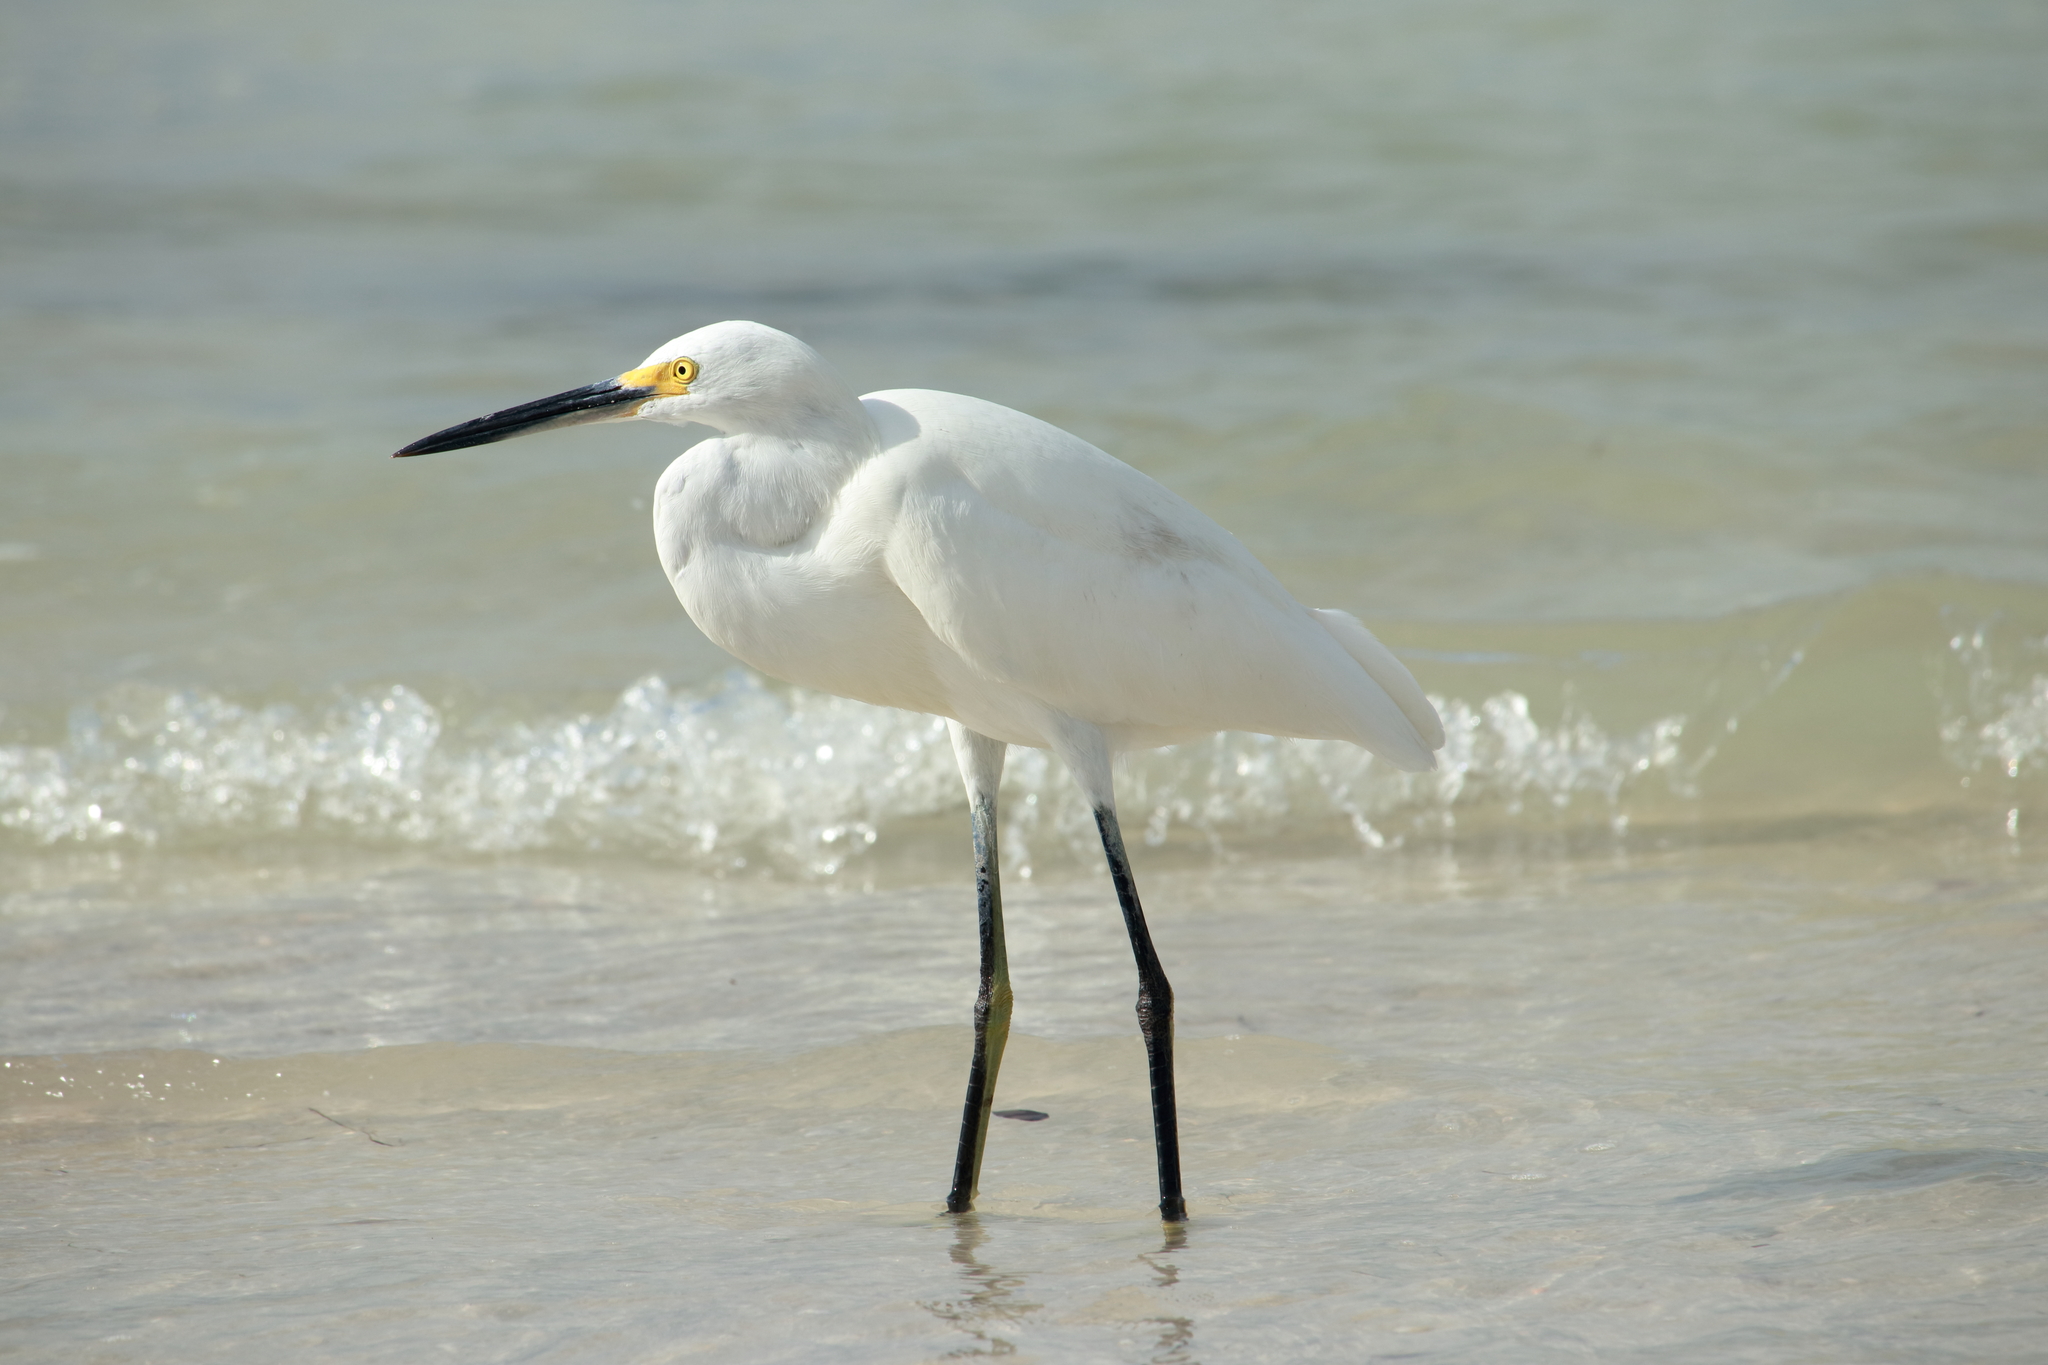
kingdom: Animalia
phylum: Chordata
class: Aves
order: Pelecaniformes
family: Ardeidae
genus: Egretta
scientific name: Egretta thula
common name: Snowy egret
